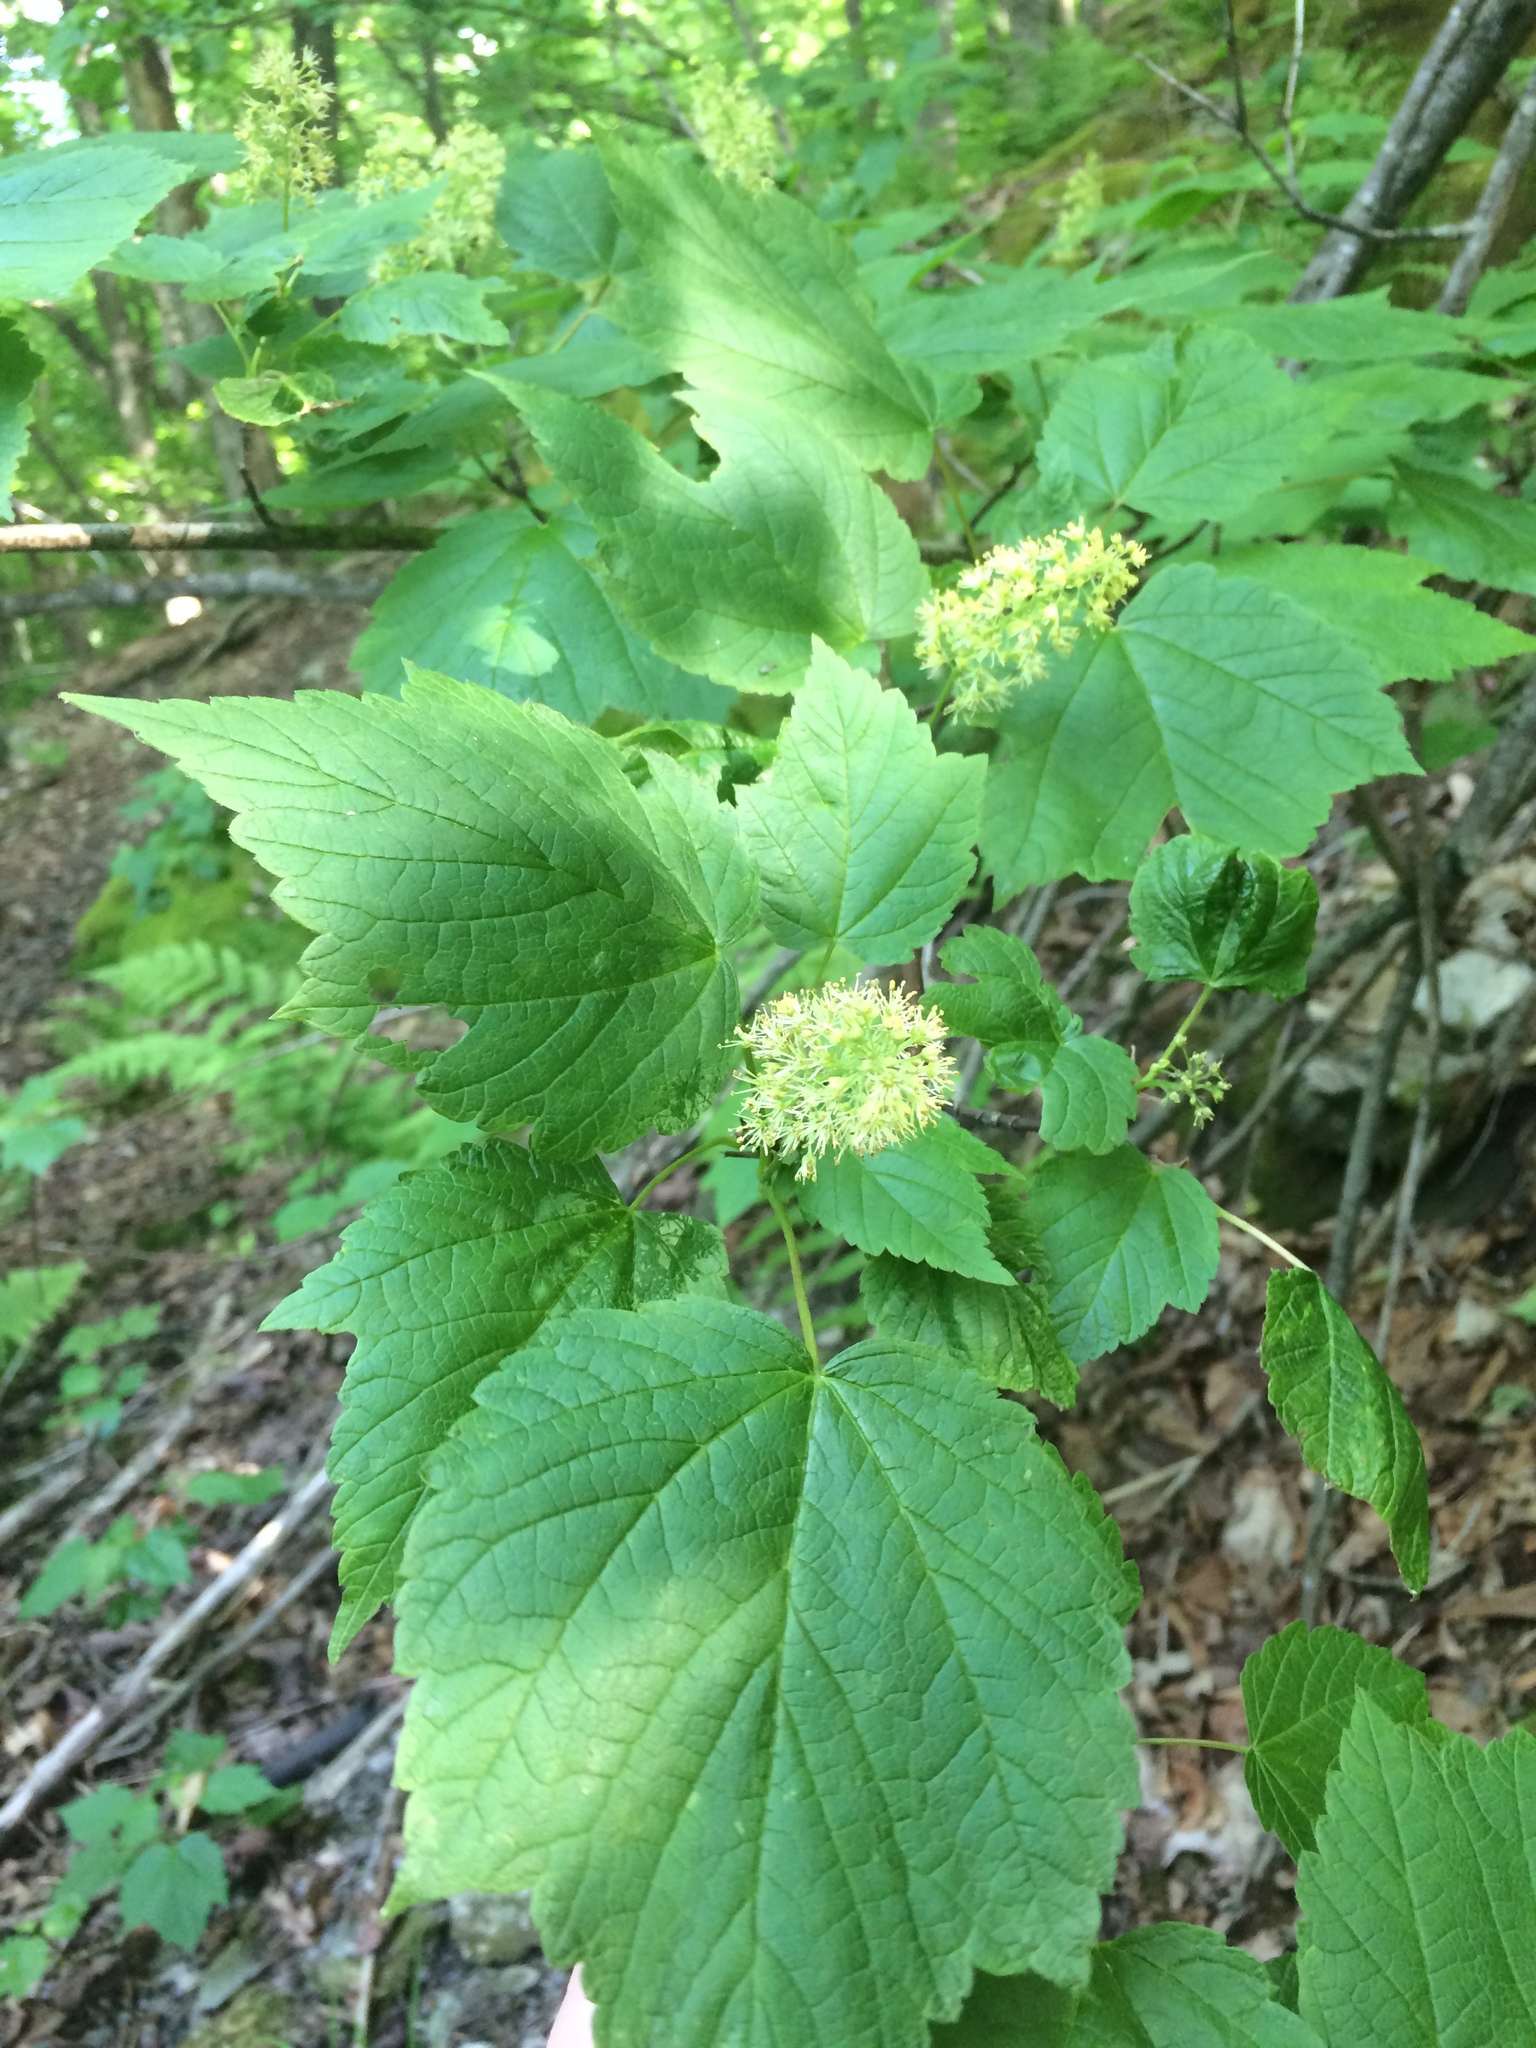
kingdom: Plantae
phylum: Tracheophyta
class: Magnoliopsida
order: Sapindales
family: Sapindaceae
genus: Acer
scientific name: Acer spicatum
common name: Mountain maple
